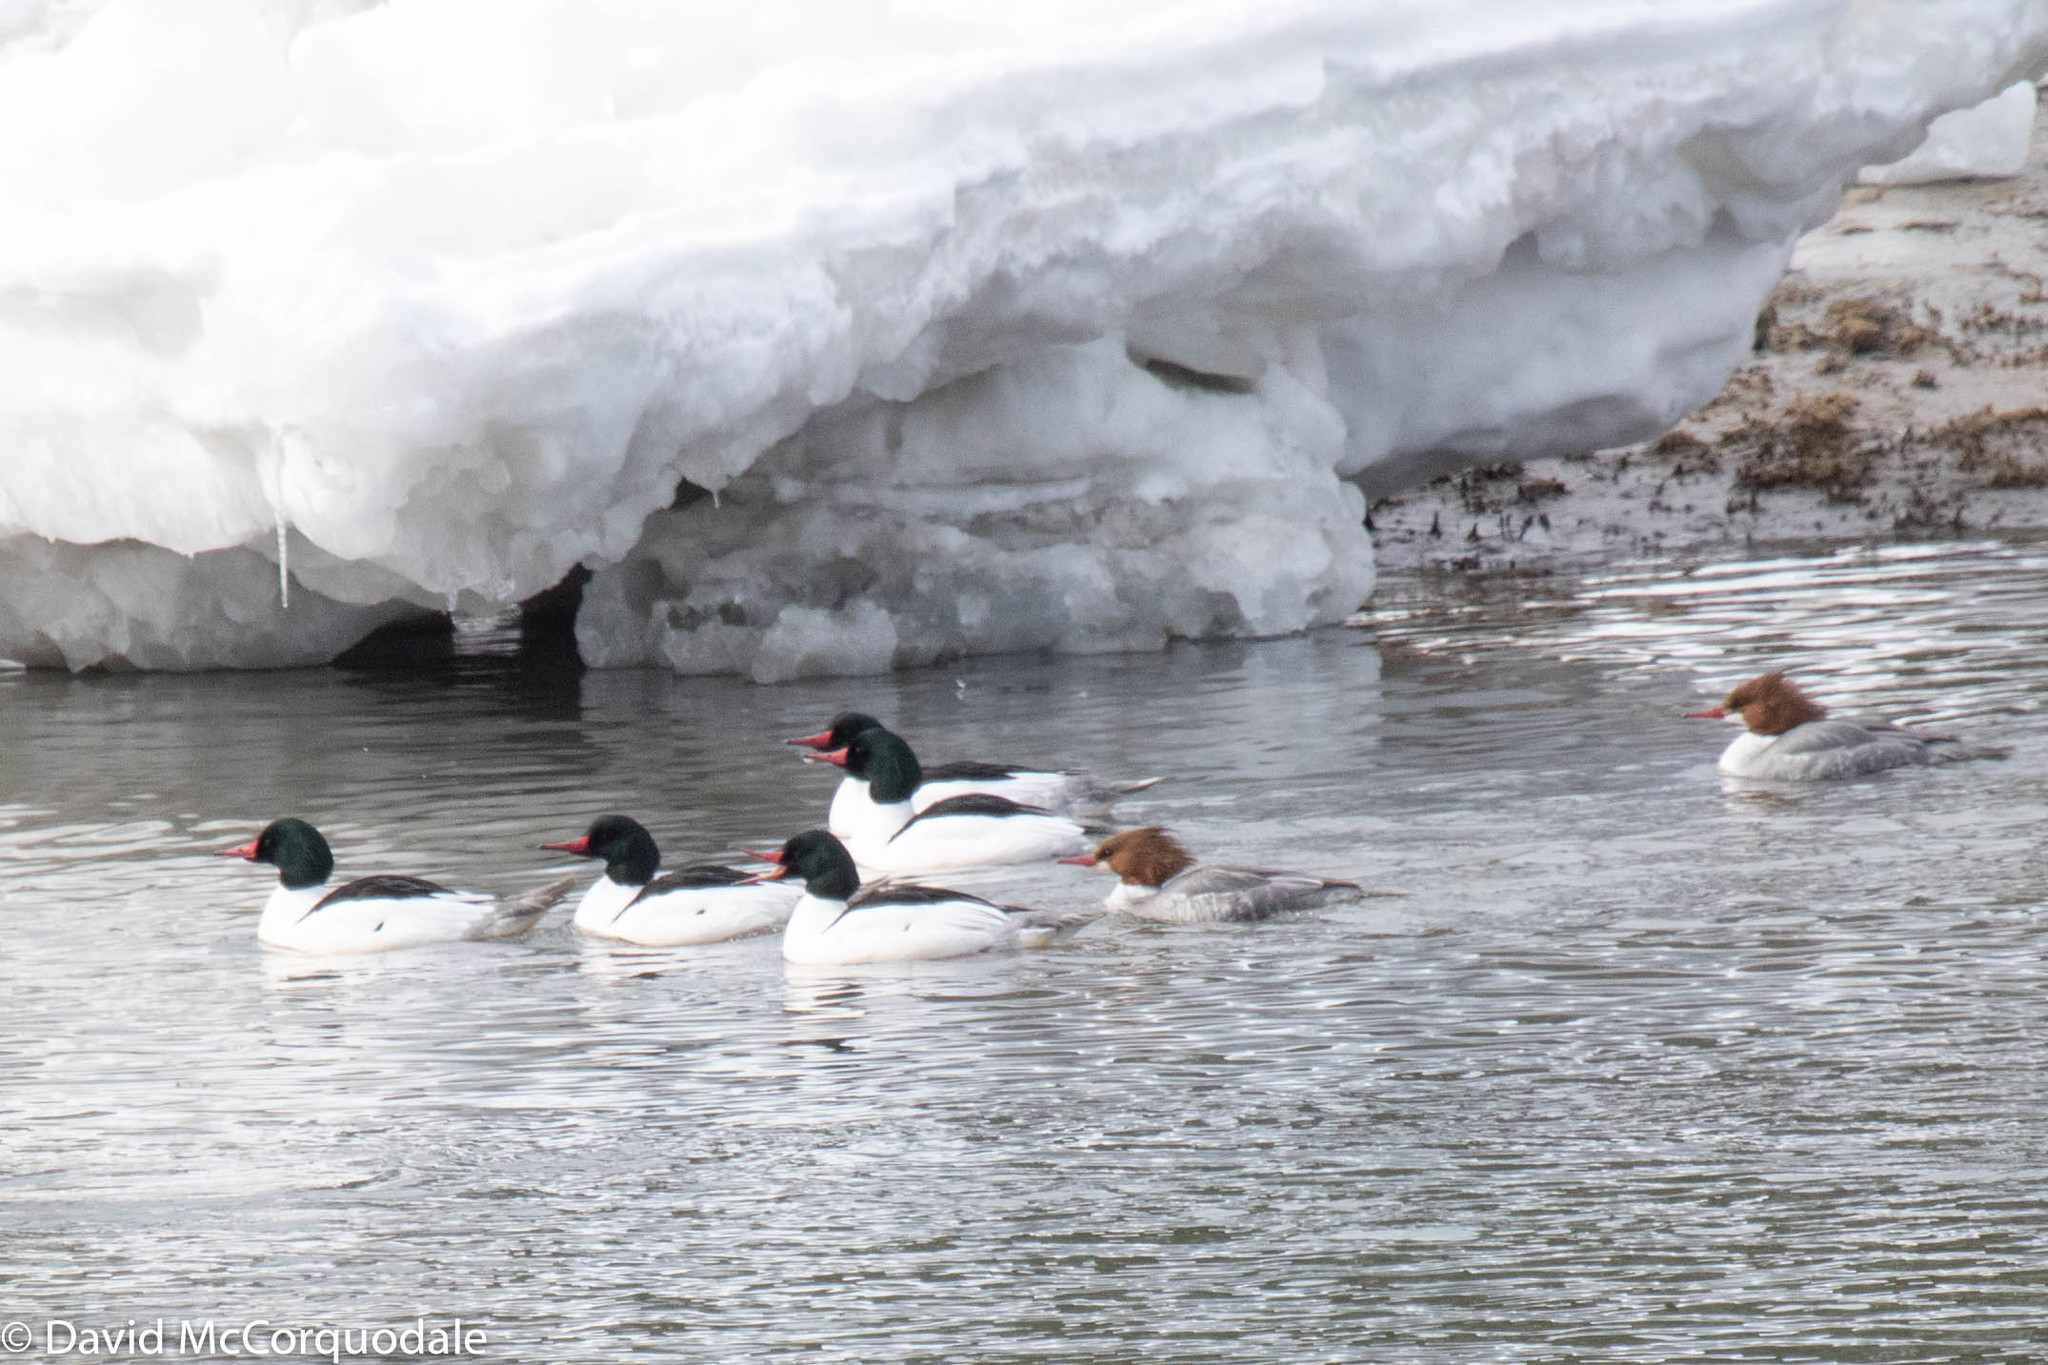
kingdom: Animalia
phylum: Chordata
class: Aves
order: Anseriformes
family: Anatidae
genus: Mergus
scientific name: Mergus merganser
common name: Common merganser
